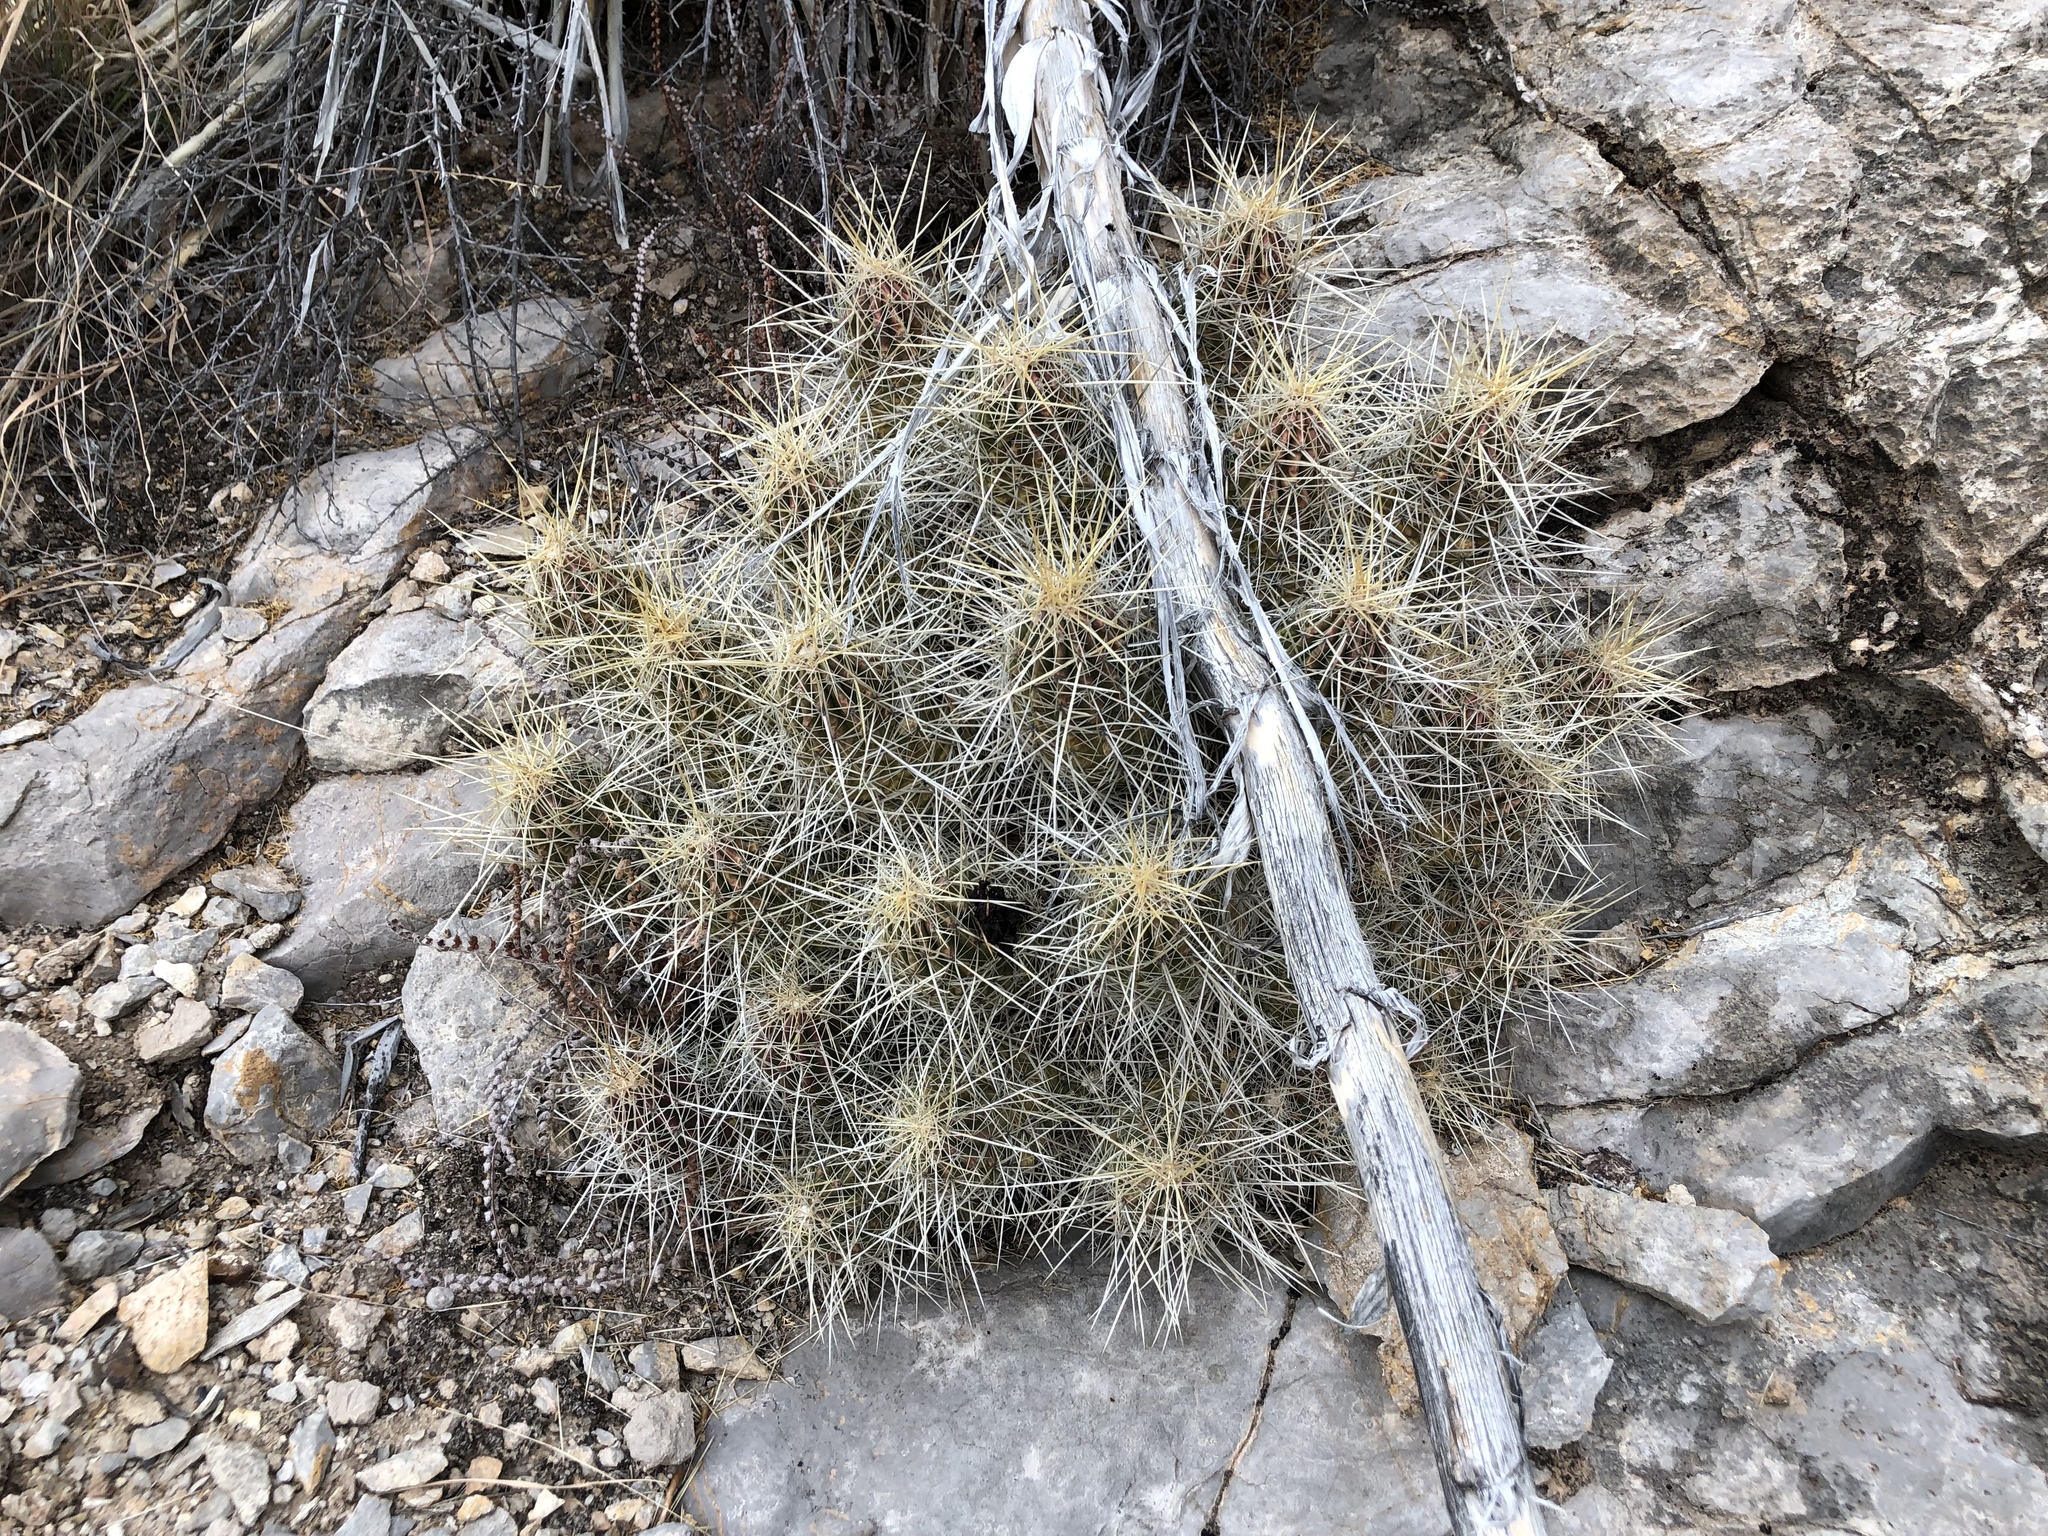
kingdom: Plantae
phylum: Tracheophyta
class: Magnoliopsida
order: Caryophyllales
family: Cactaceae
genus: Echinocereus
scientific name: Echinocereus stramineus
